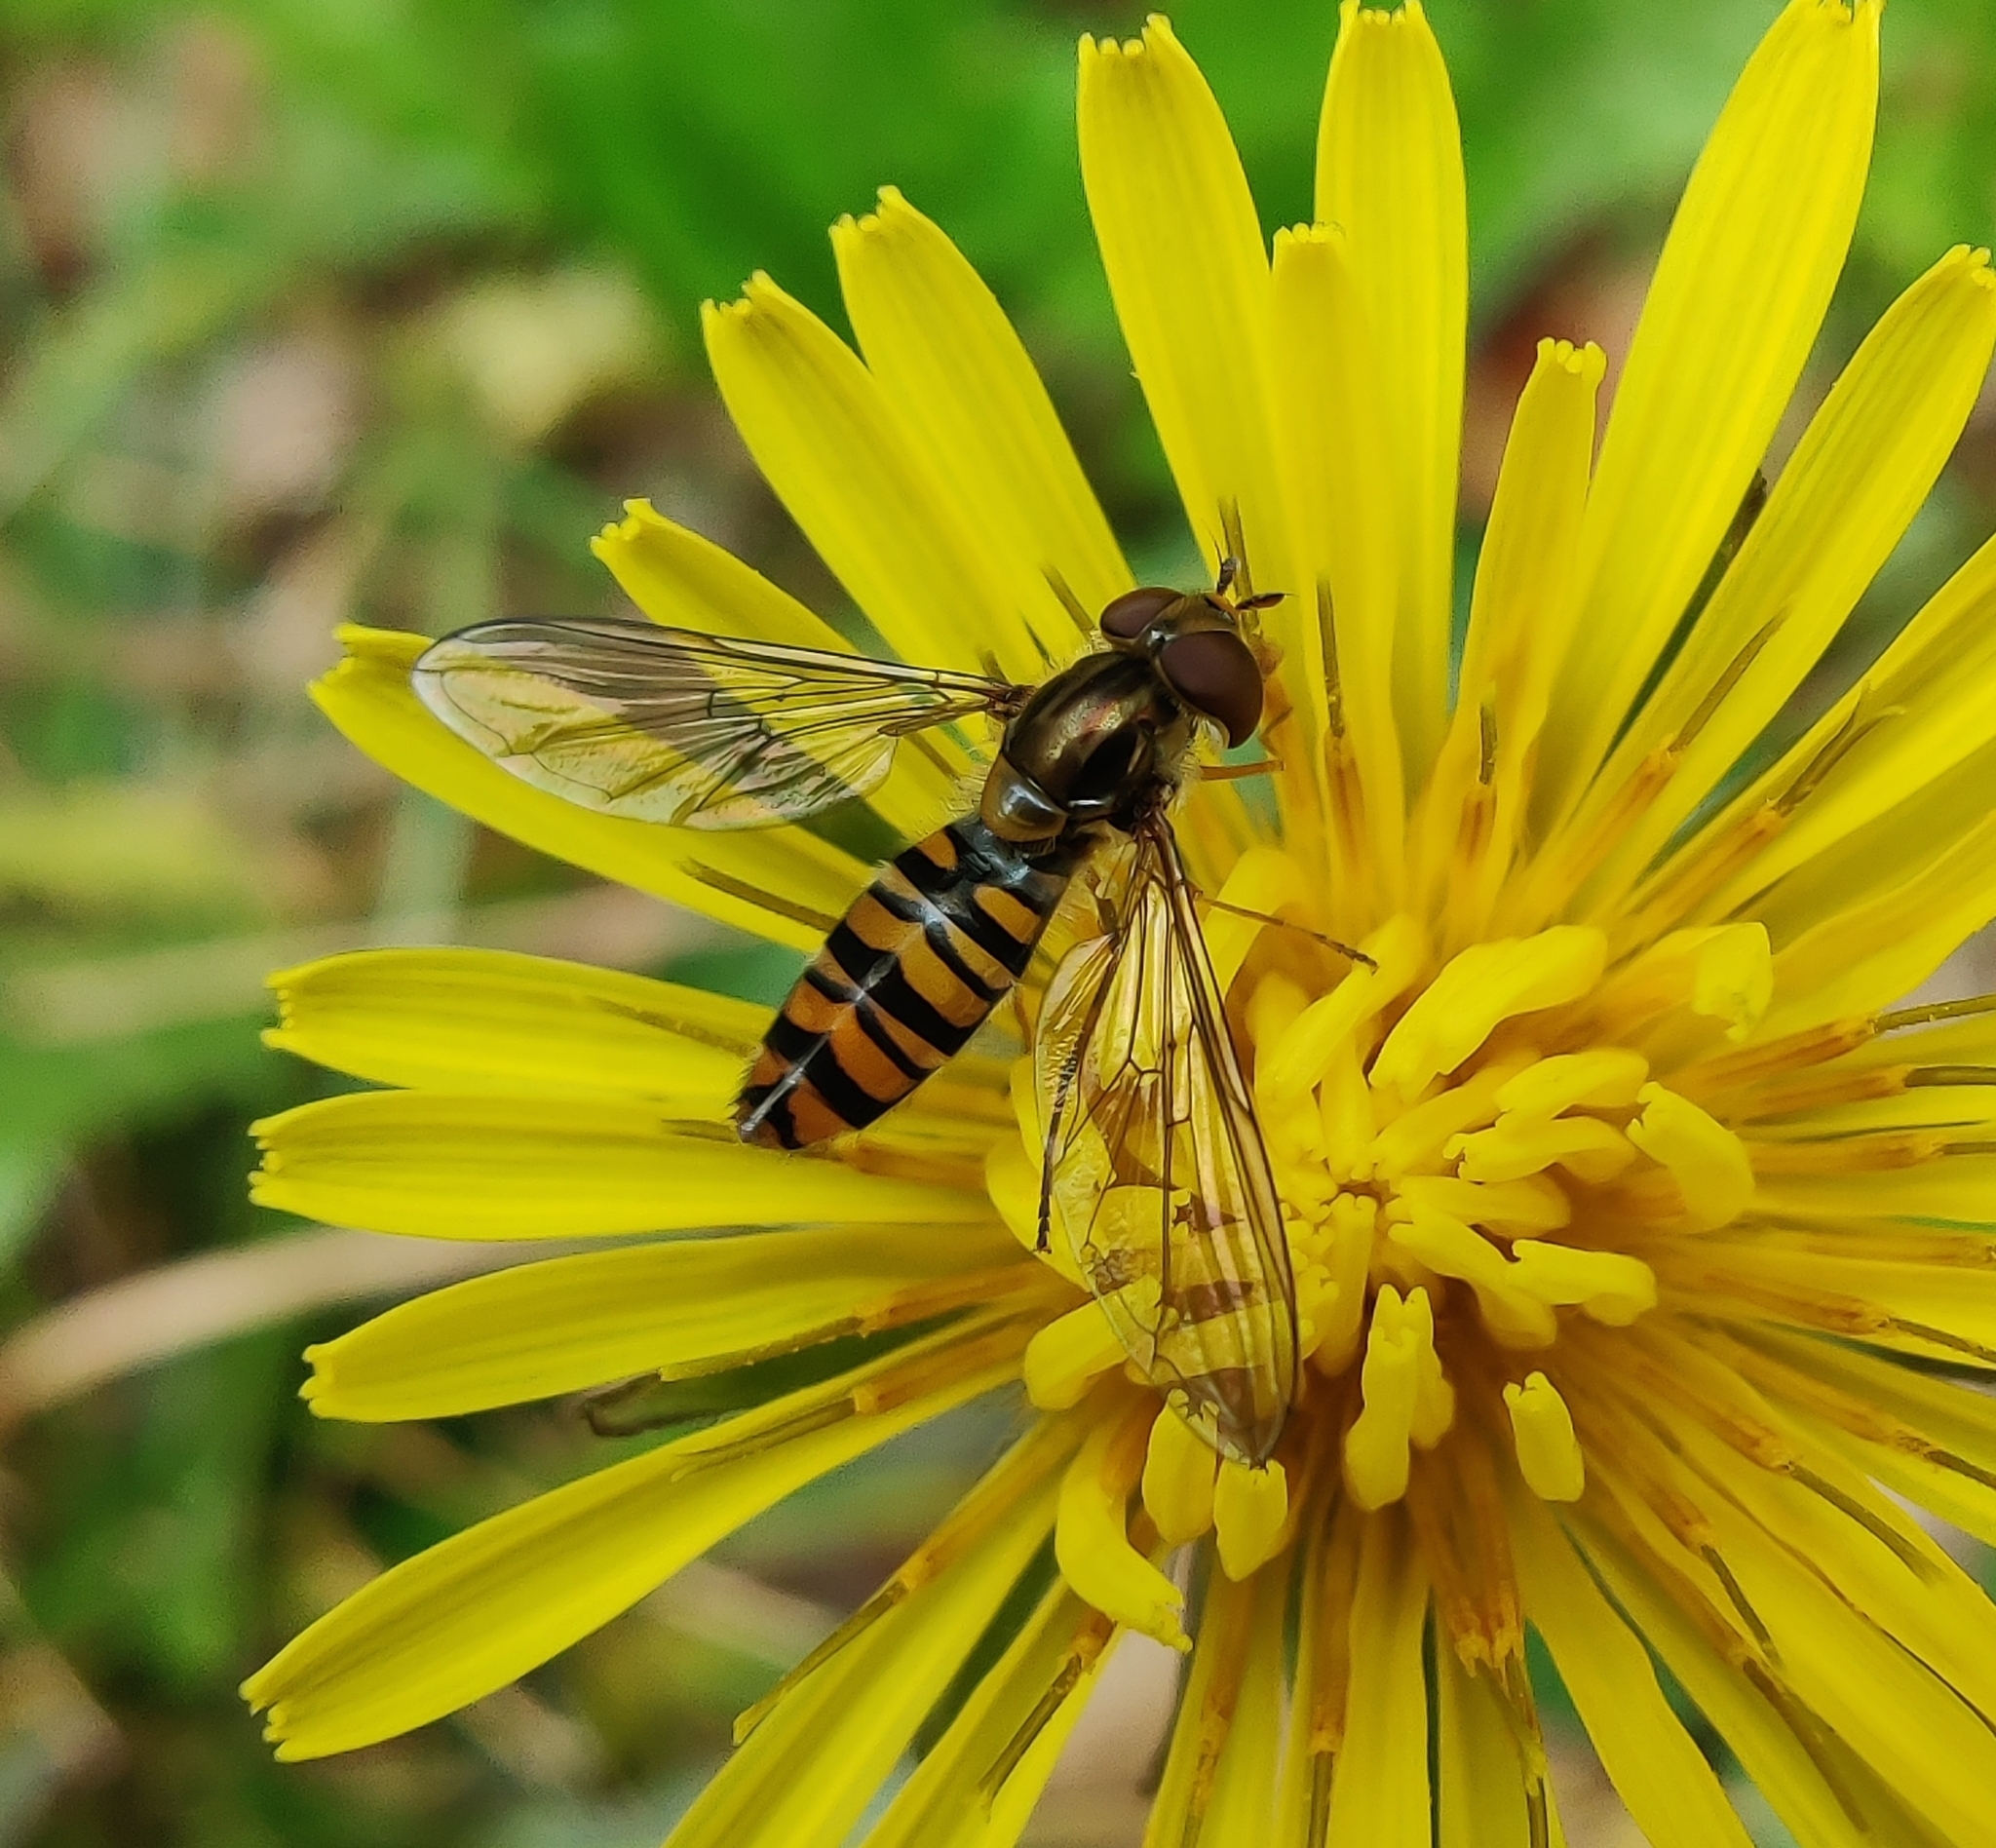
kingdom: Animalia
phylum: Arthropoda
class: Insecta
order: Diptera
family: Syrphidae
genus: Episyrphus
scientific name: Episyrphus balteatus
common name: Marmalade hoverfly
